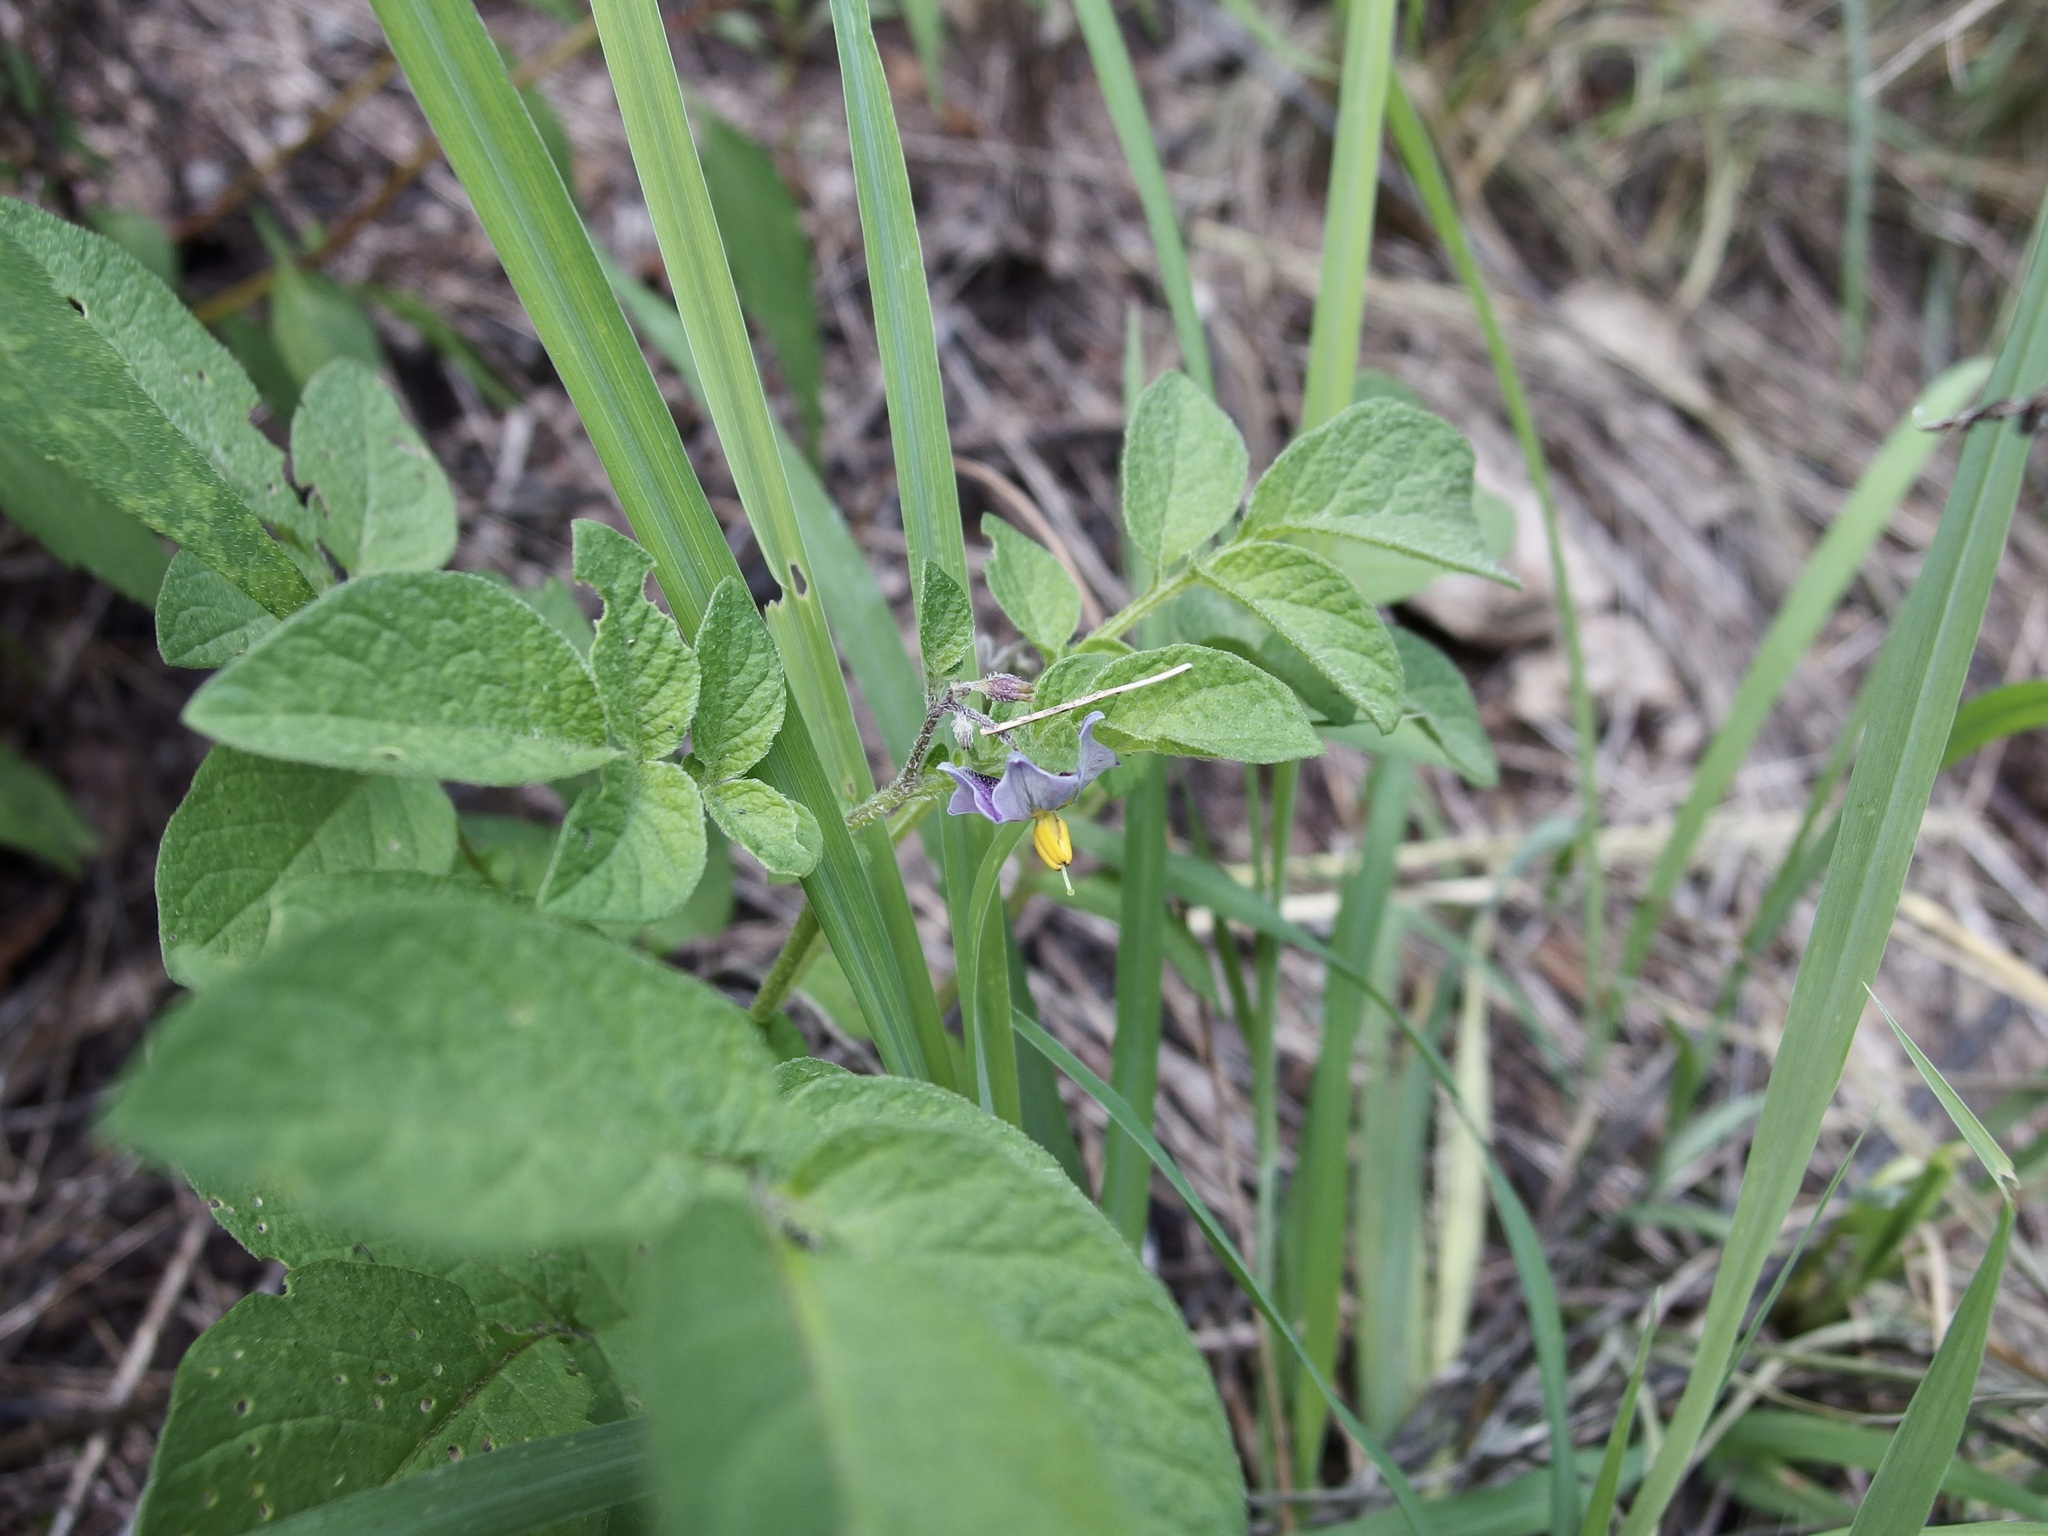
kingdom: Plantae
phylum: Tracheophyta
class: Magnoliopsida
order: Solanales
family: Solanaceae
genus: Solanum
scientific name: Solanum stoloniferum
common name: Fendler's nighshade
